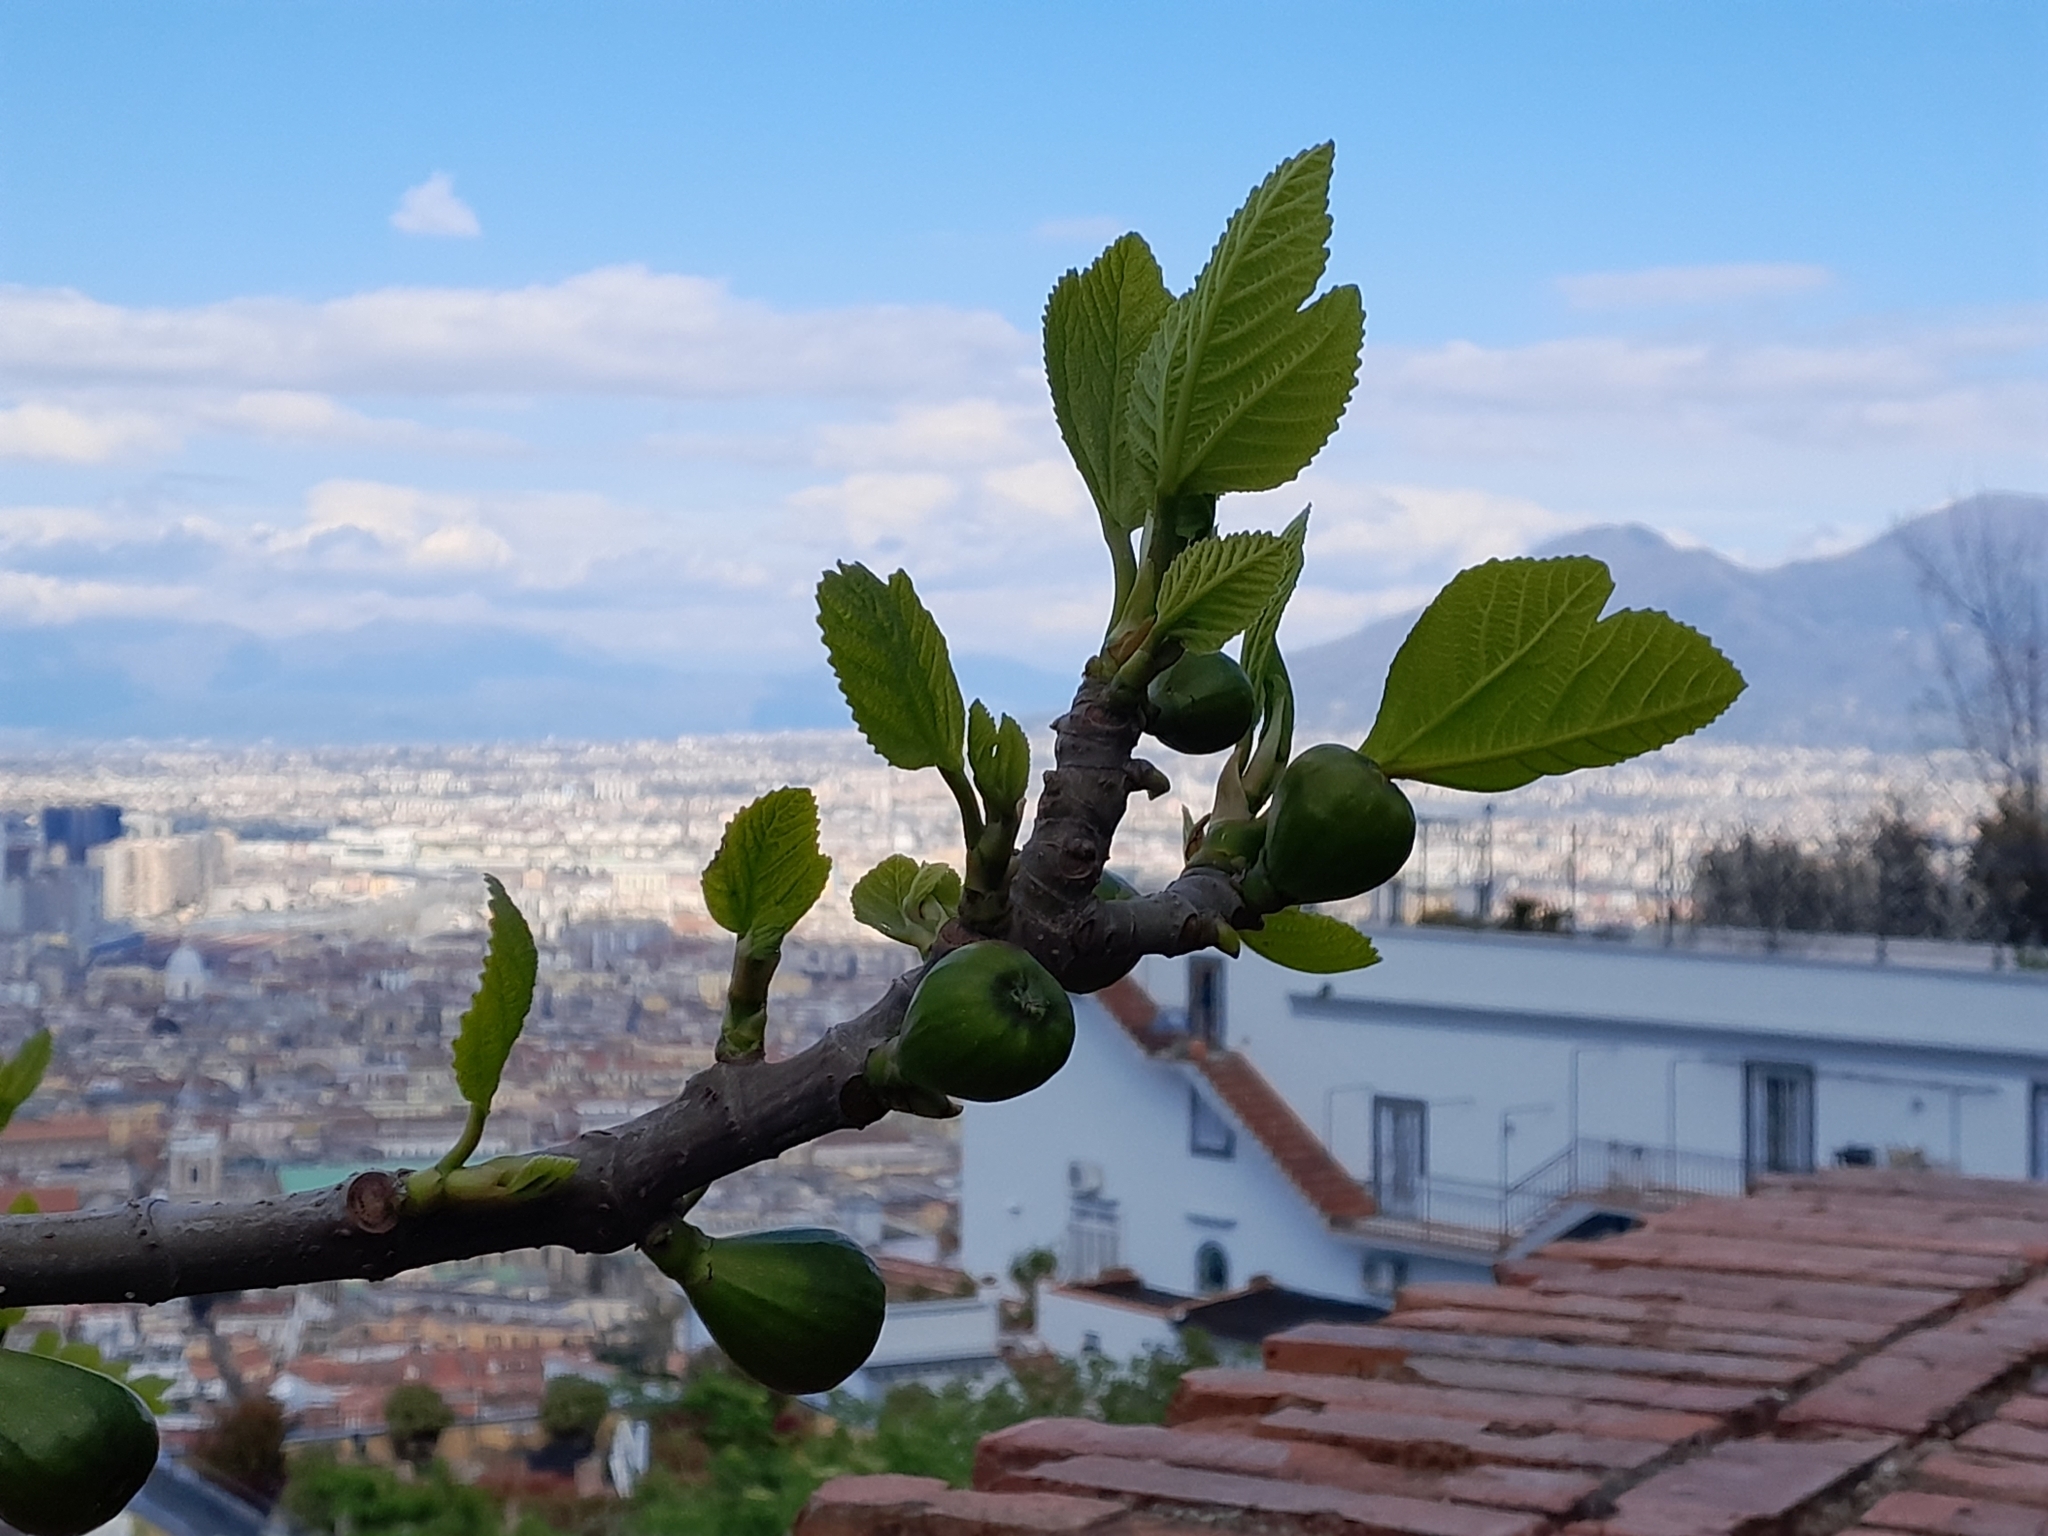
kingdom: Plantae
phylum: Tracheophyta
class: Magnoliopsida
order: Rosales
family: Moraceae
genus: Ficus
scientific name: Ficus carica
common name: Fig
